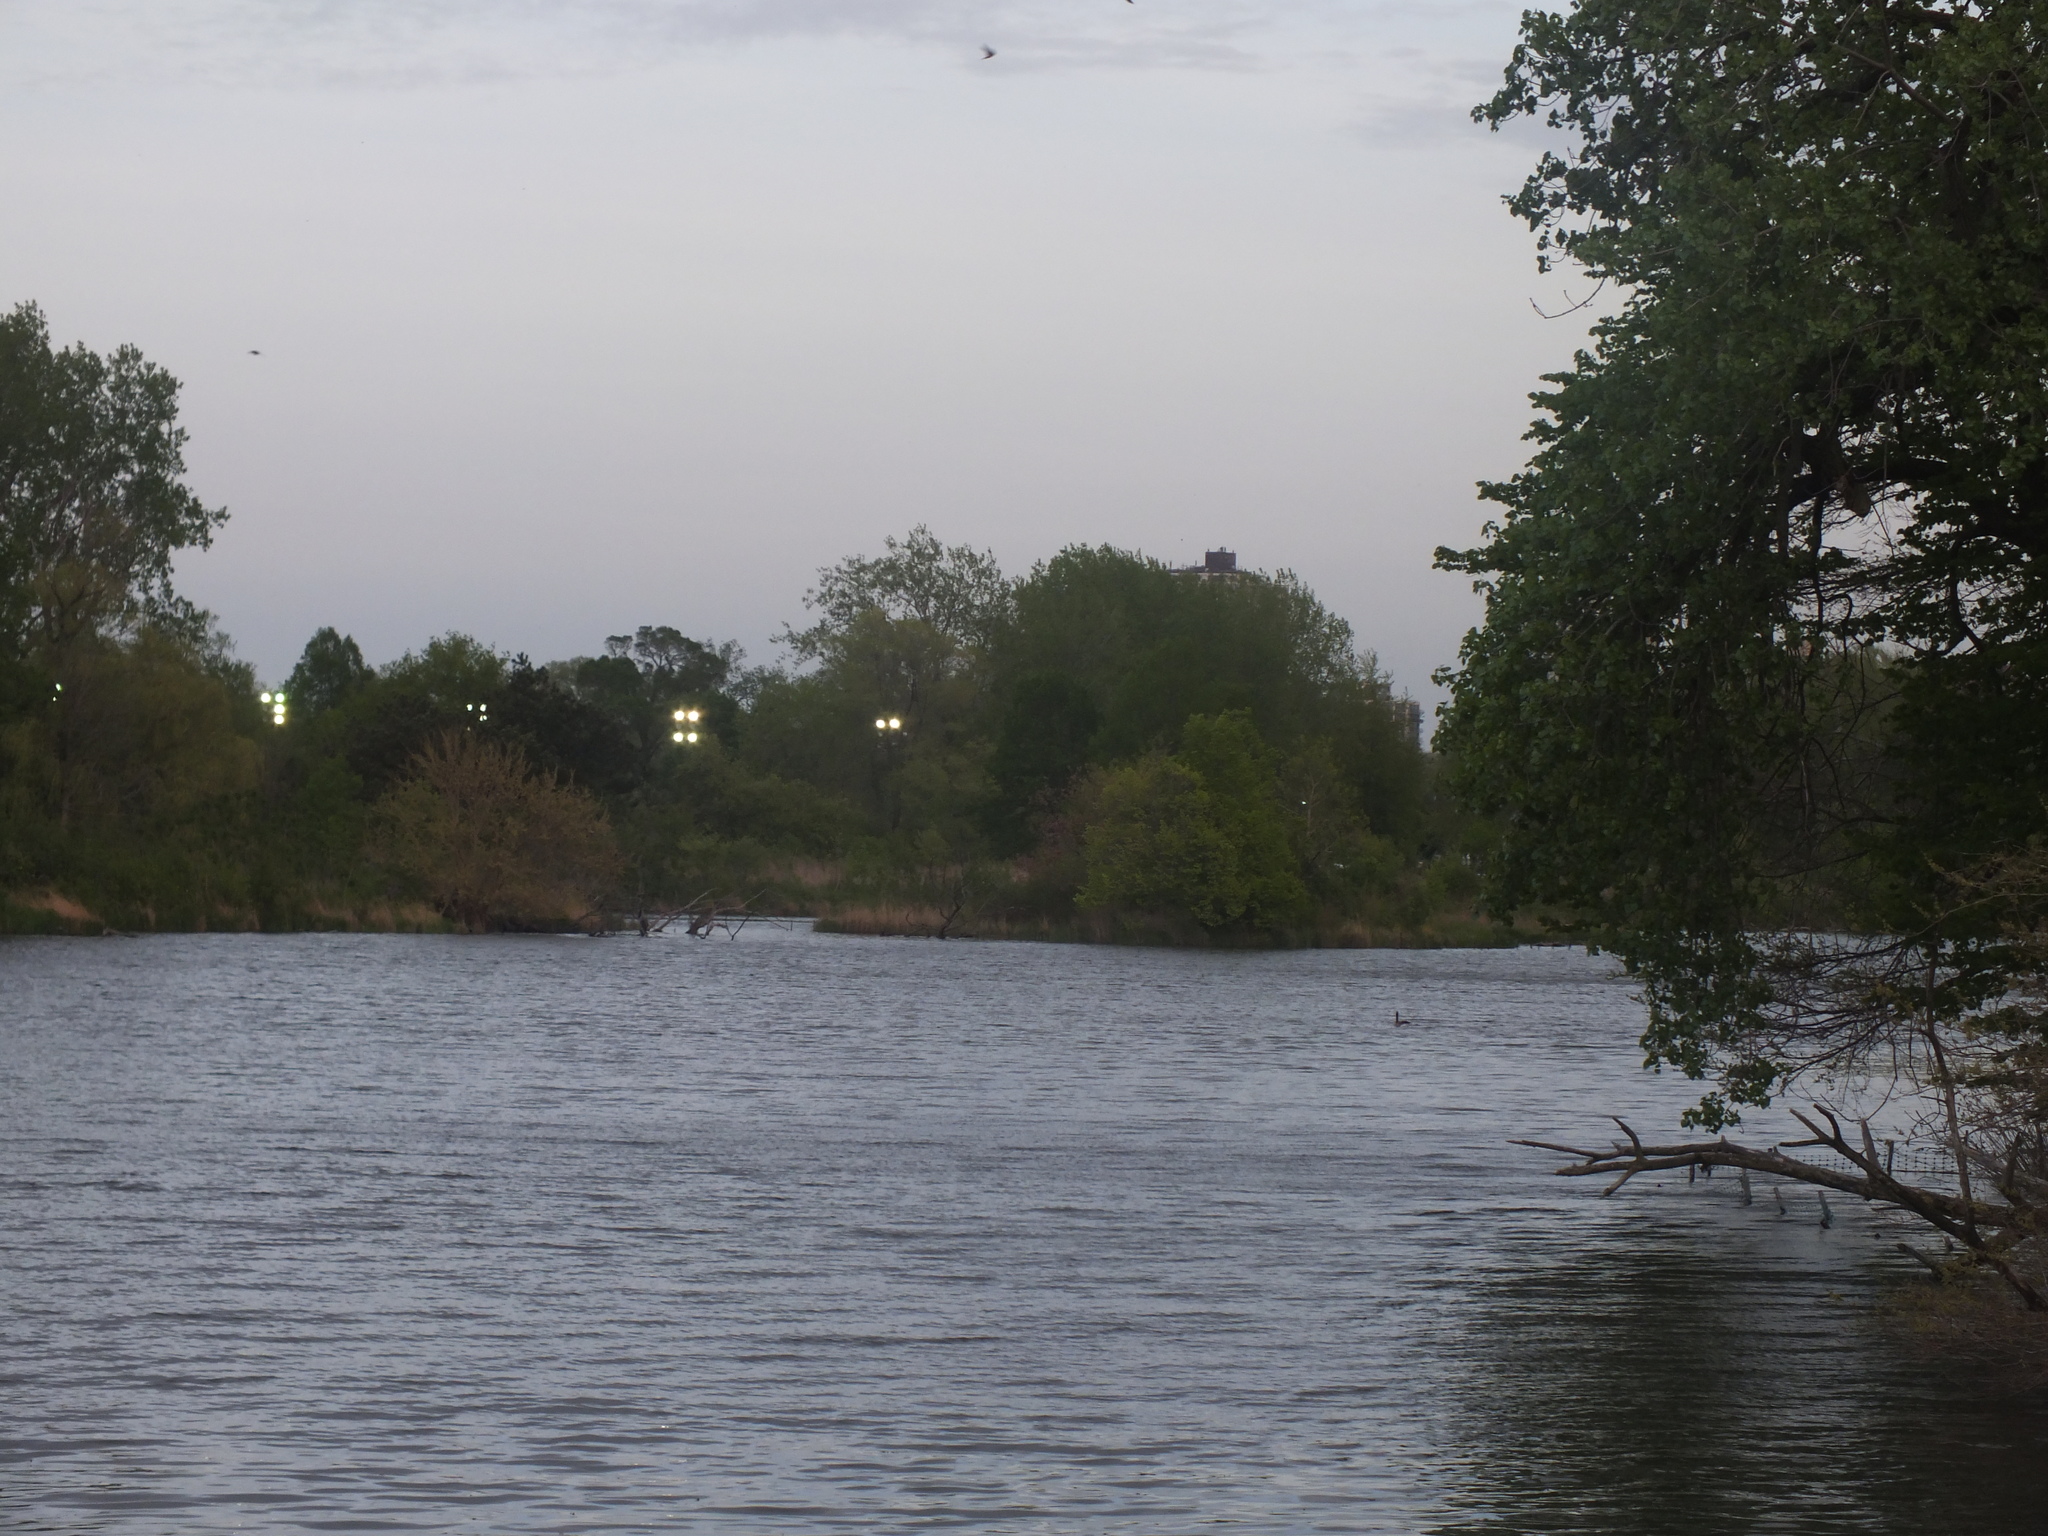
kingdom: Animalia
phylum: Chordata
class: Aves
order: Anseriformes
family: Anatidae
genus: Branta
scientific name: Branta canadensis
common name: Canada goose
